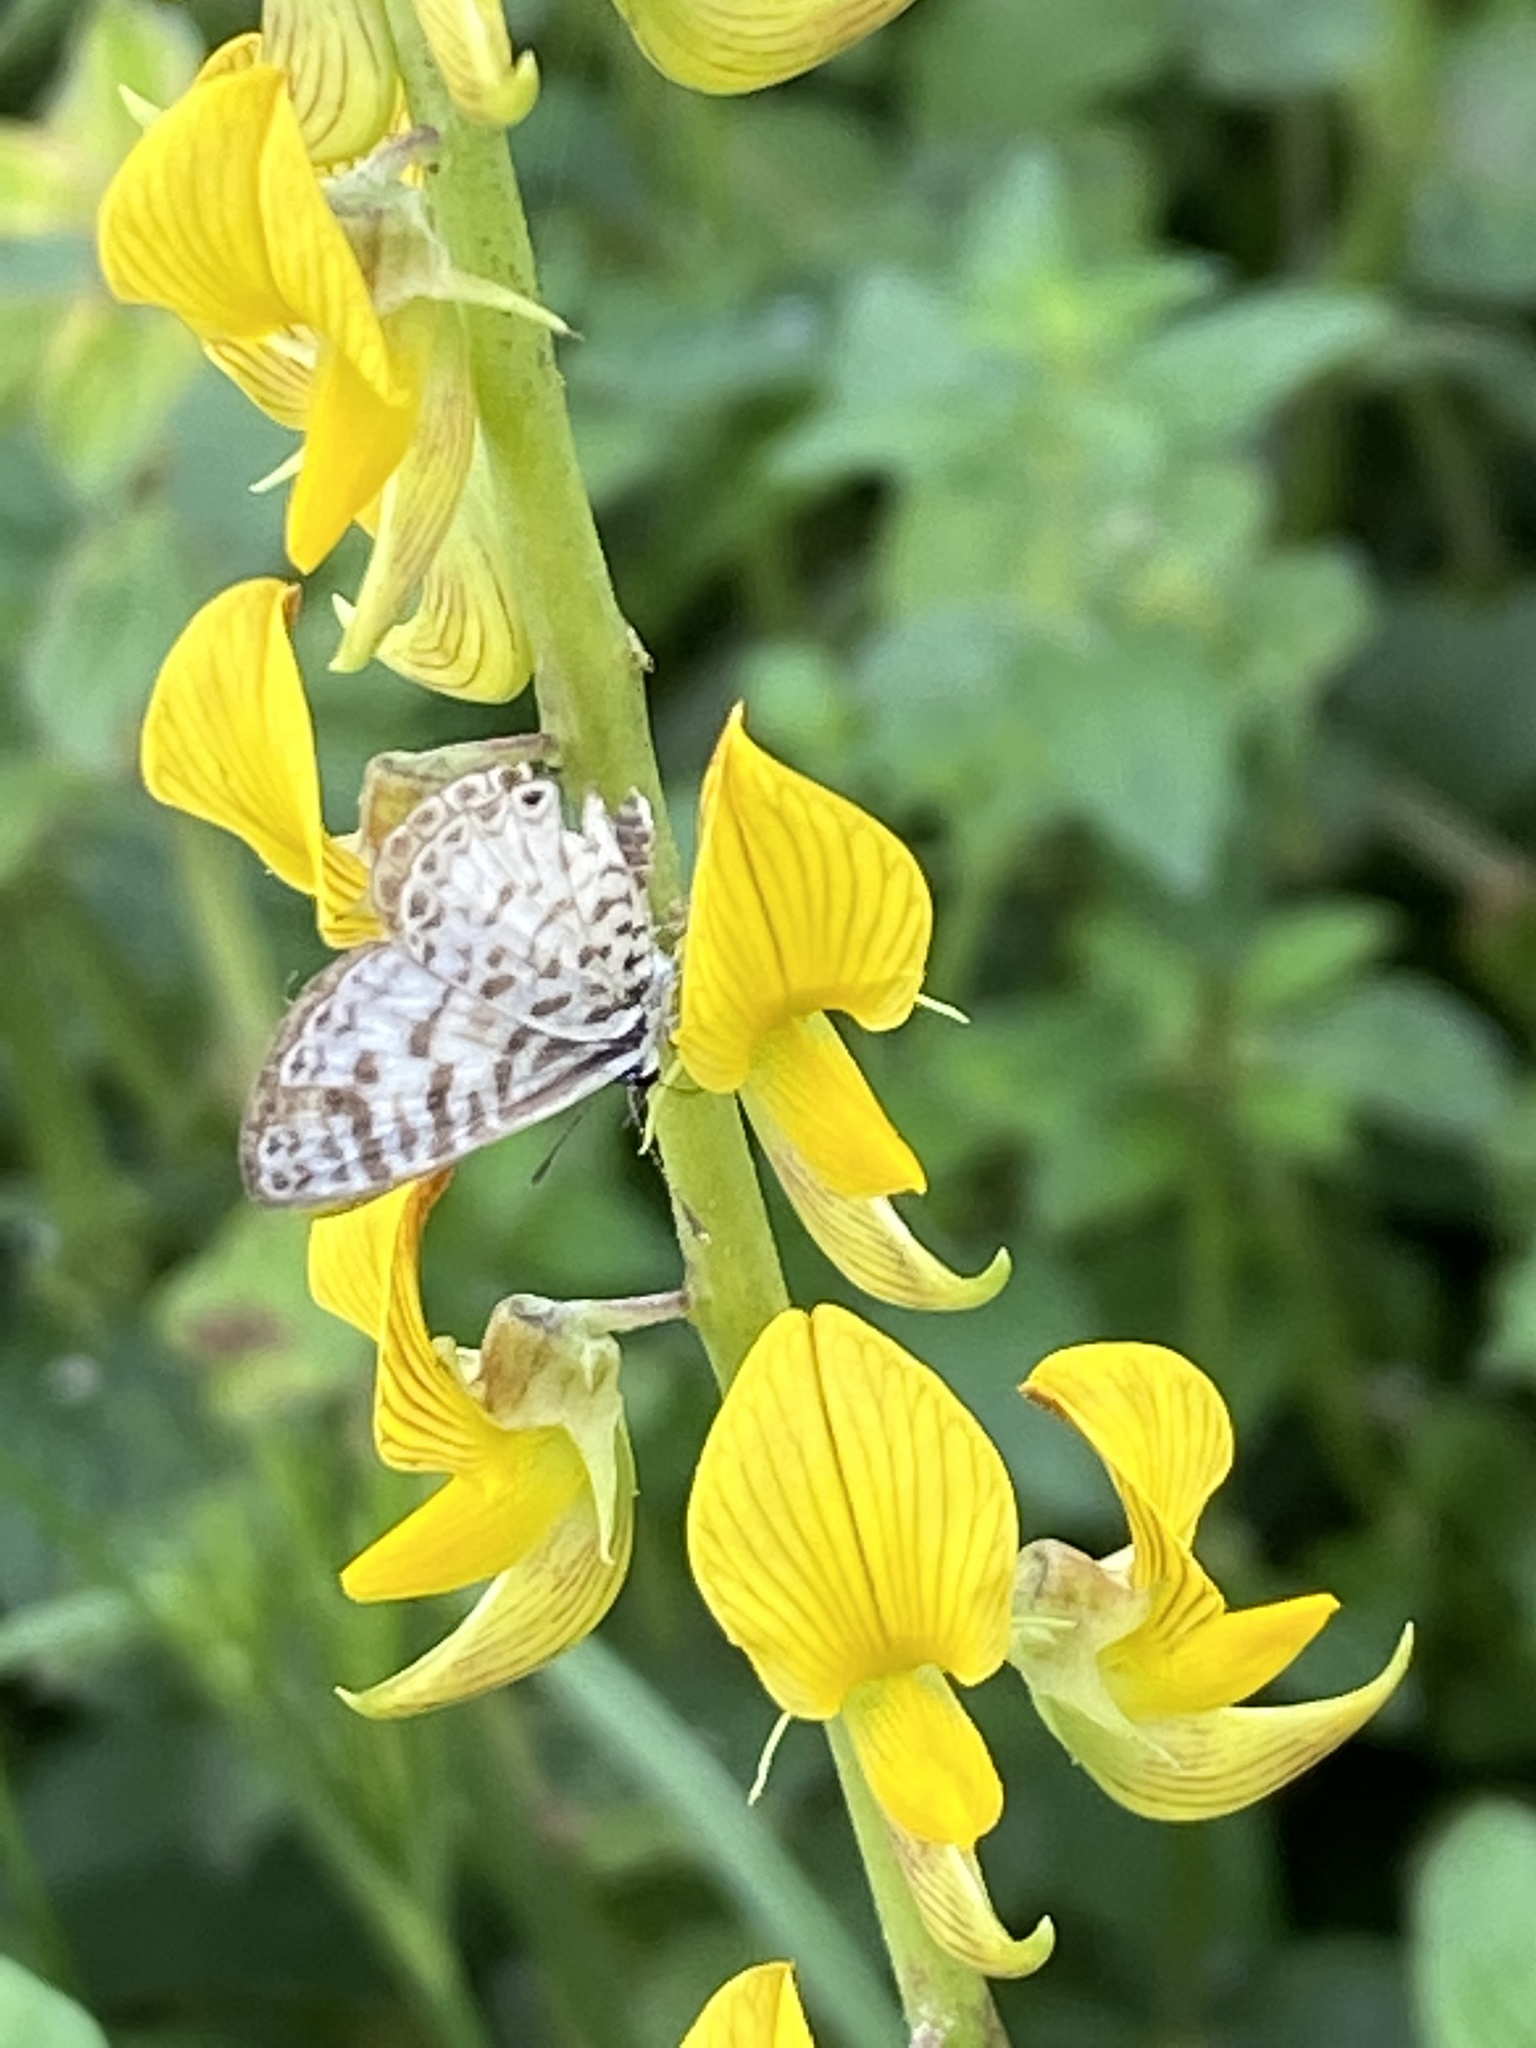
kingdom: Animalia
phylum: Arthropoda
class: Insecta
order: Lepidoptera
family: Lycaenidae
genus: Leptotes
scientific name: Leptotes cassius
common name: Cassius blue
